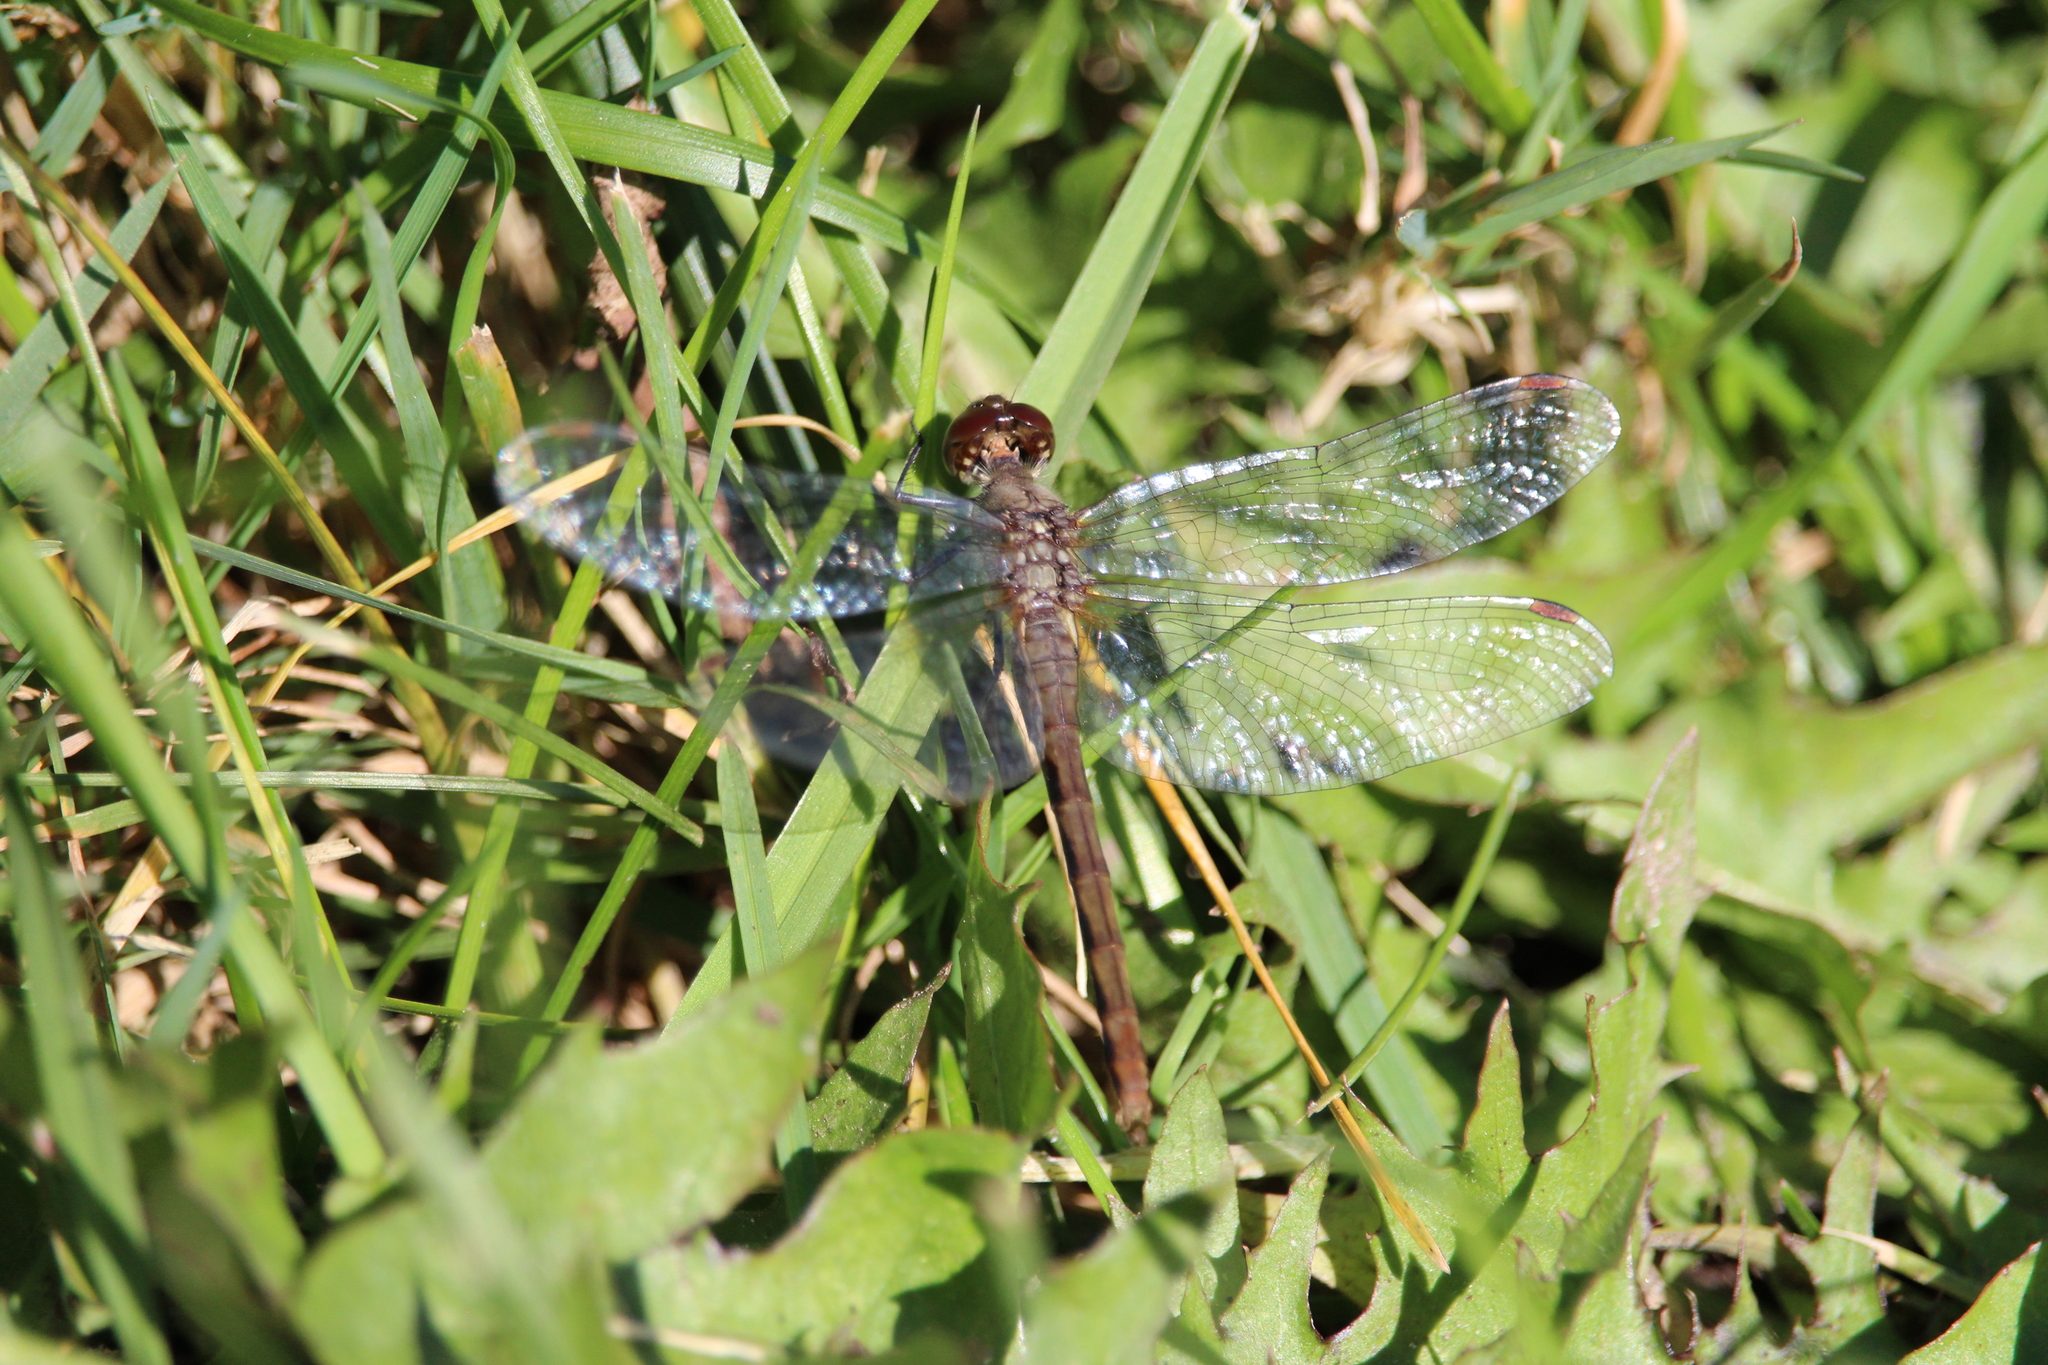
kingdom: Animalia
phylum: Arthropoda
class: Insecta
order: Odonata
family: Libellulidae
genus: Sympetrum
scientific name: Sympetrum
